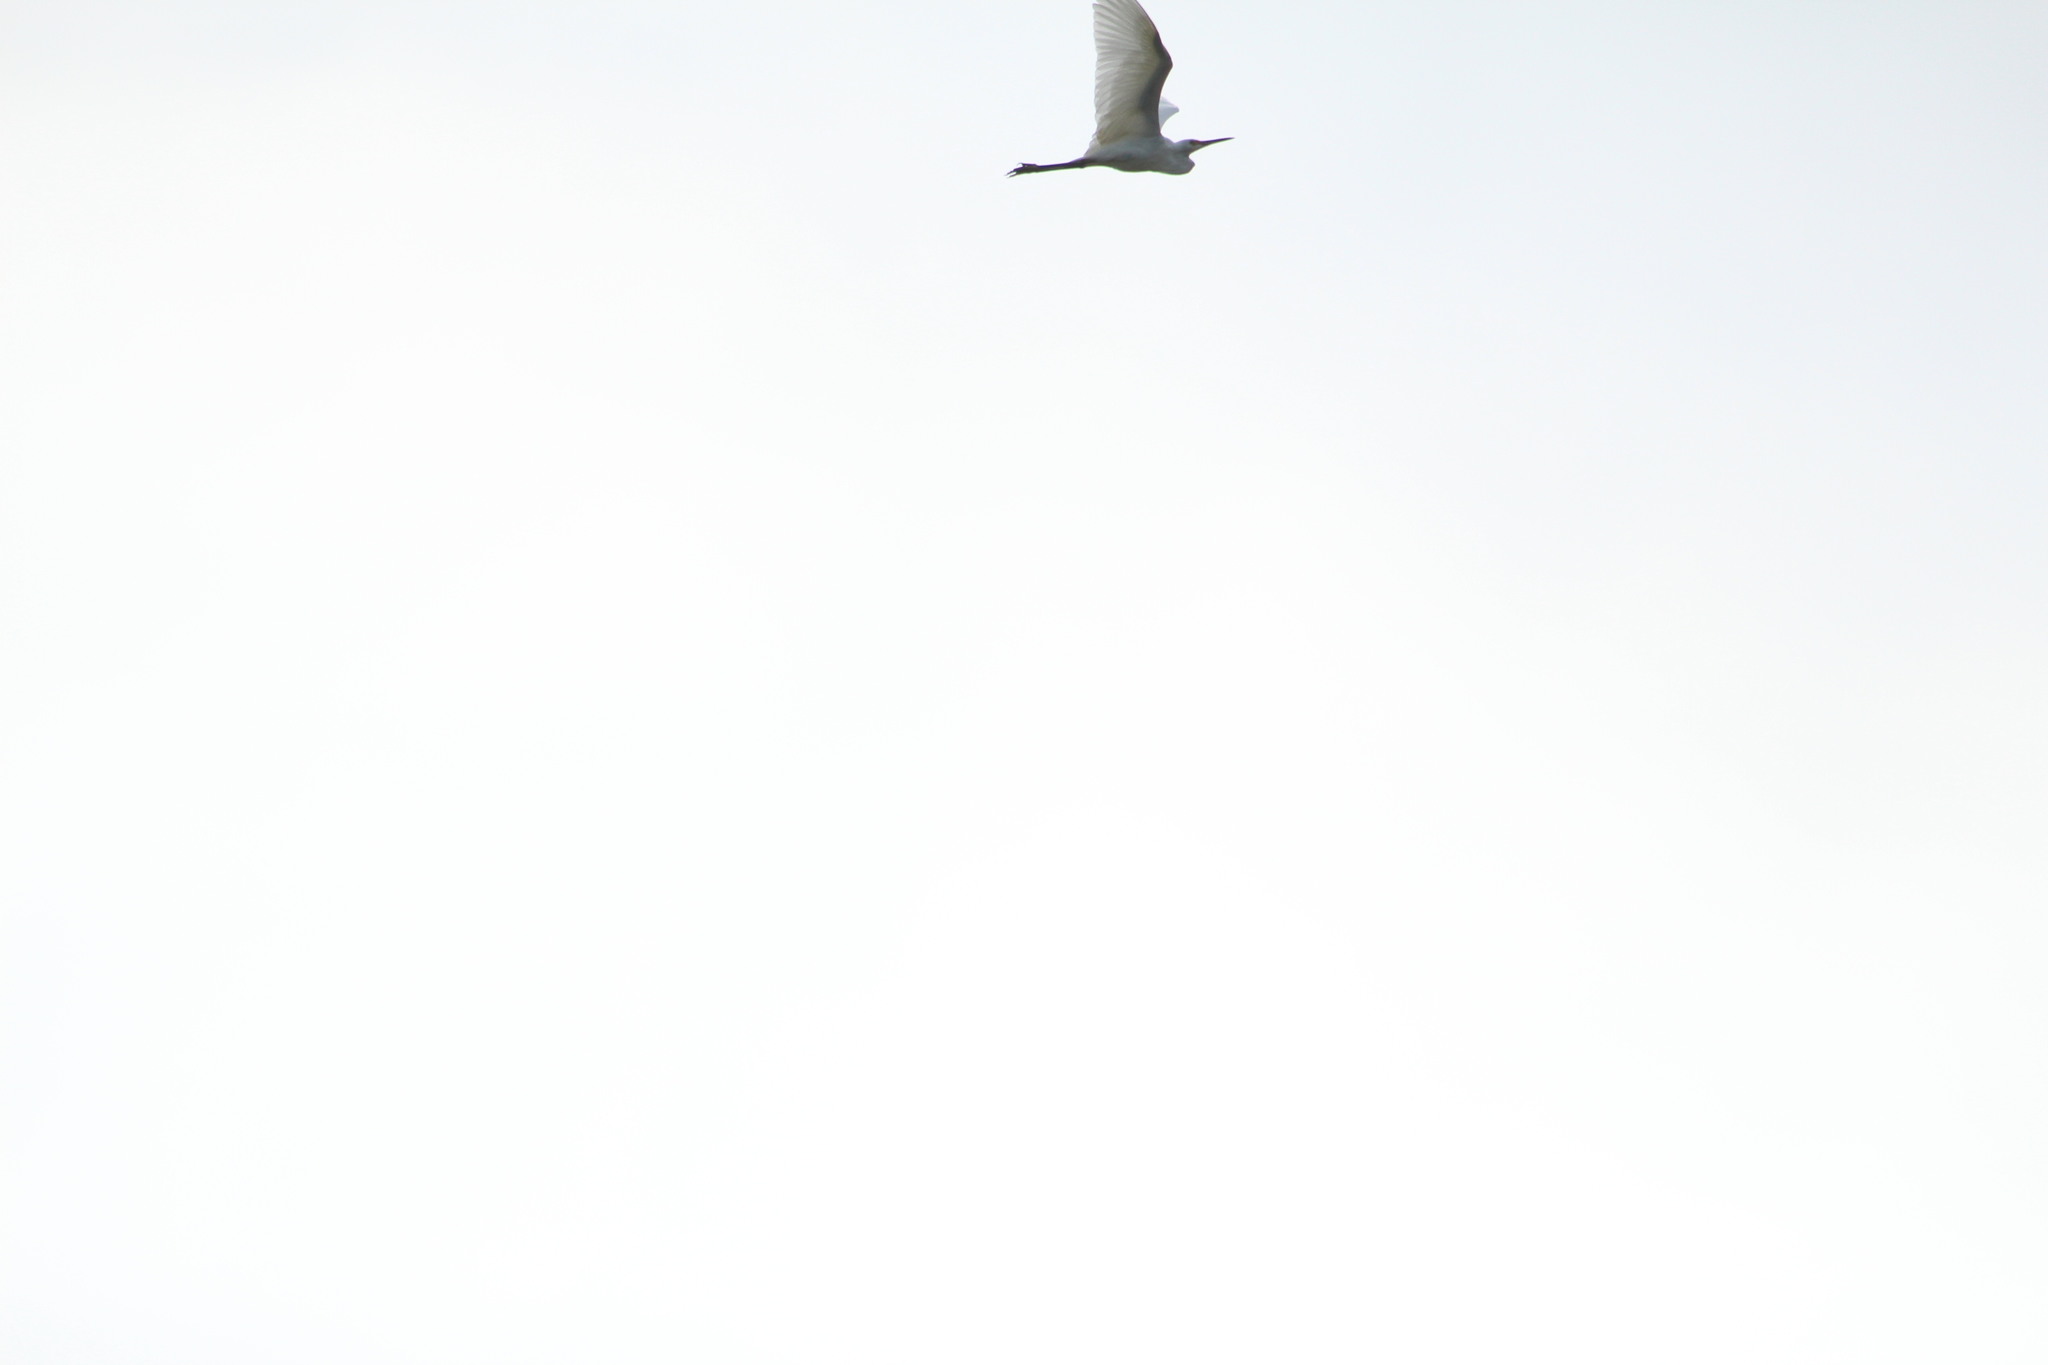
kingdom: Animalia
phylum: Chordata
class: Aves
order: Pelecaniformes
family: Ardeidae
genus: Egretta
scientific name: Egretta thula
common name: Snowy egret
